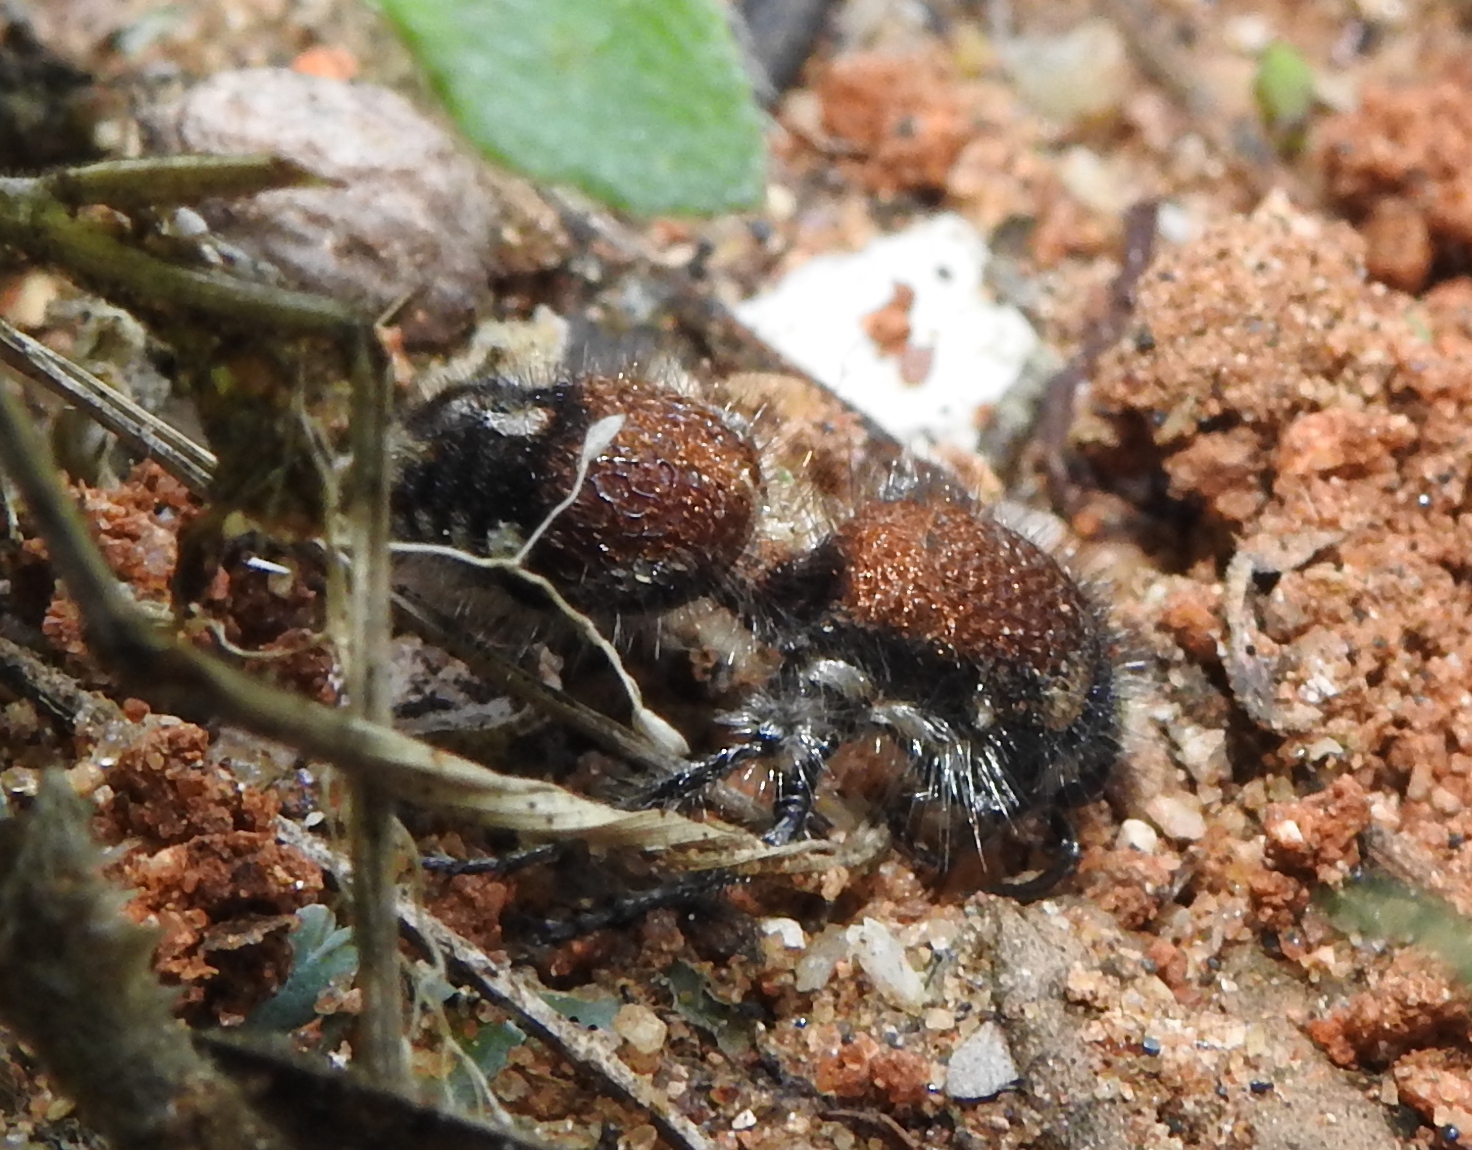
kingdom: Animalia
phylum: Arthropoda
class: Insecta
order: Hymenoptera
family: Mutillidae
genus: Dasylabris
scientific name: Dasylabris
